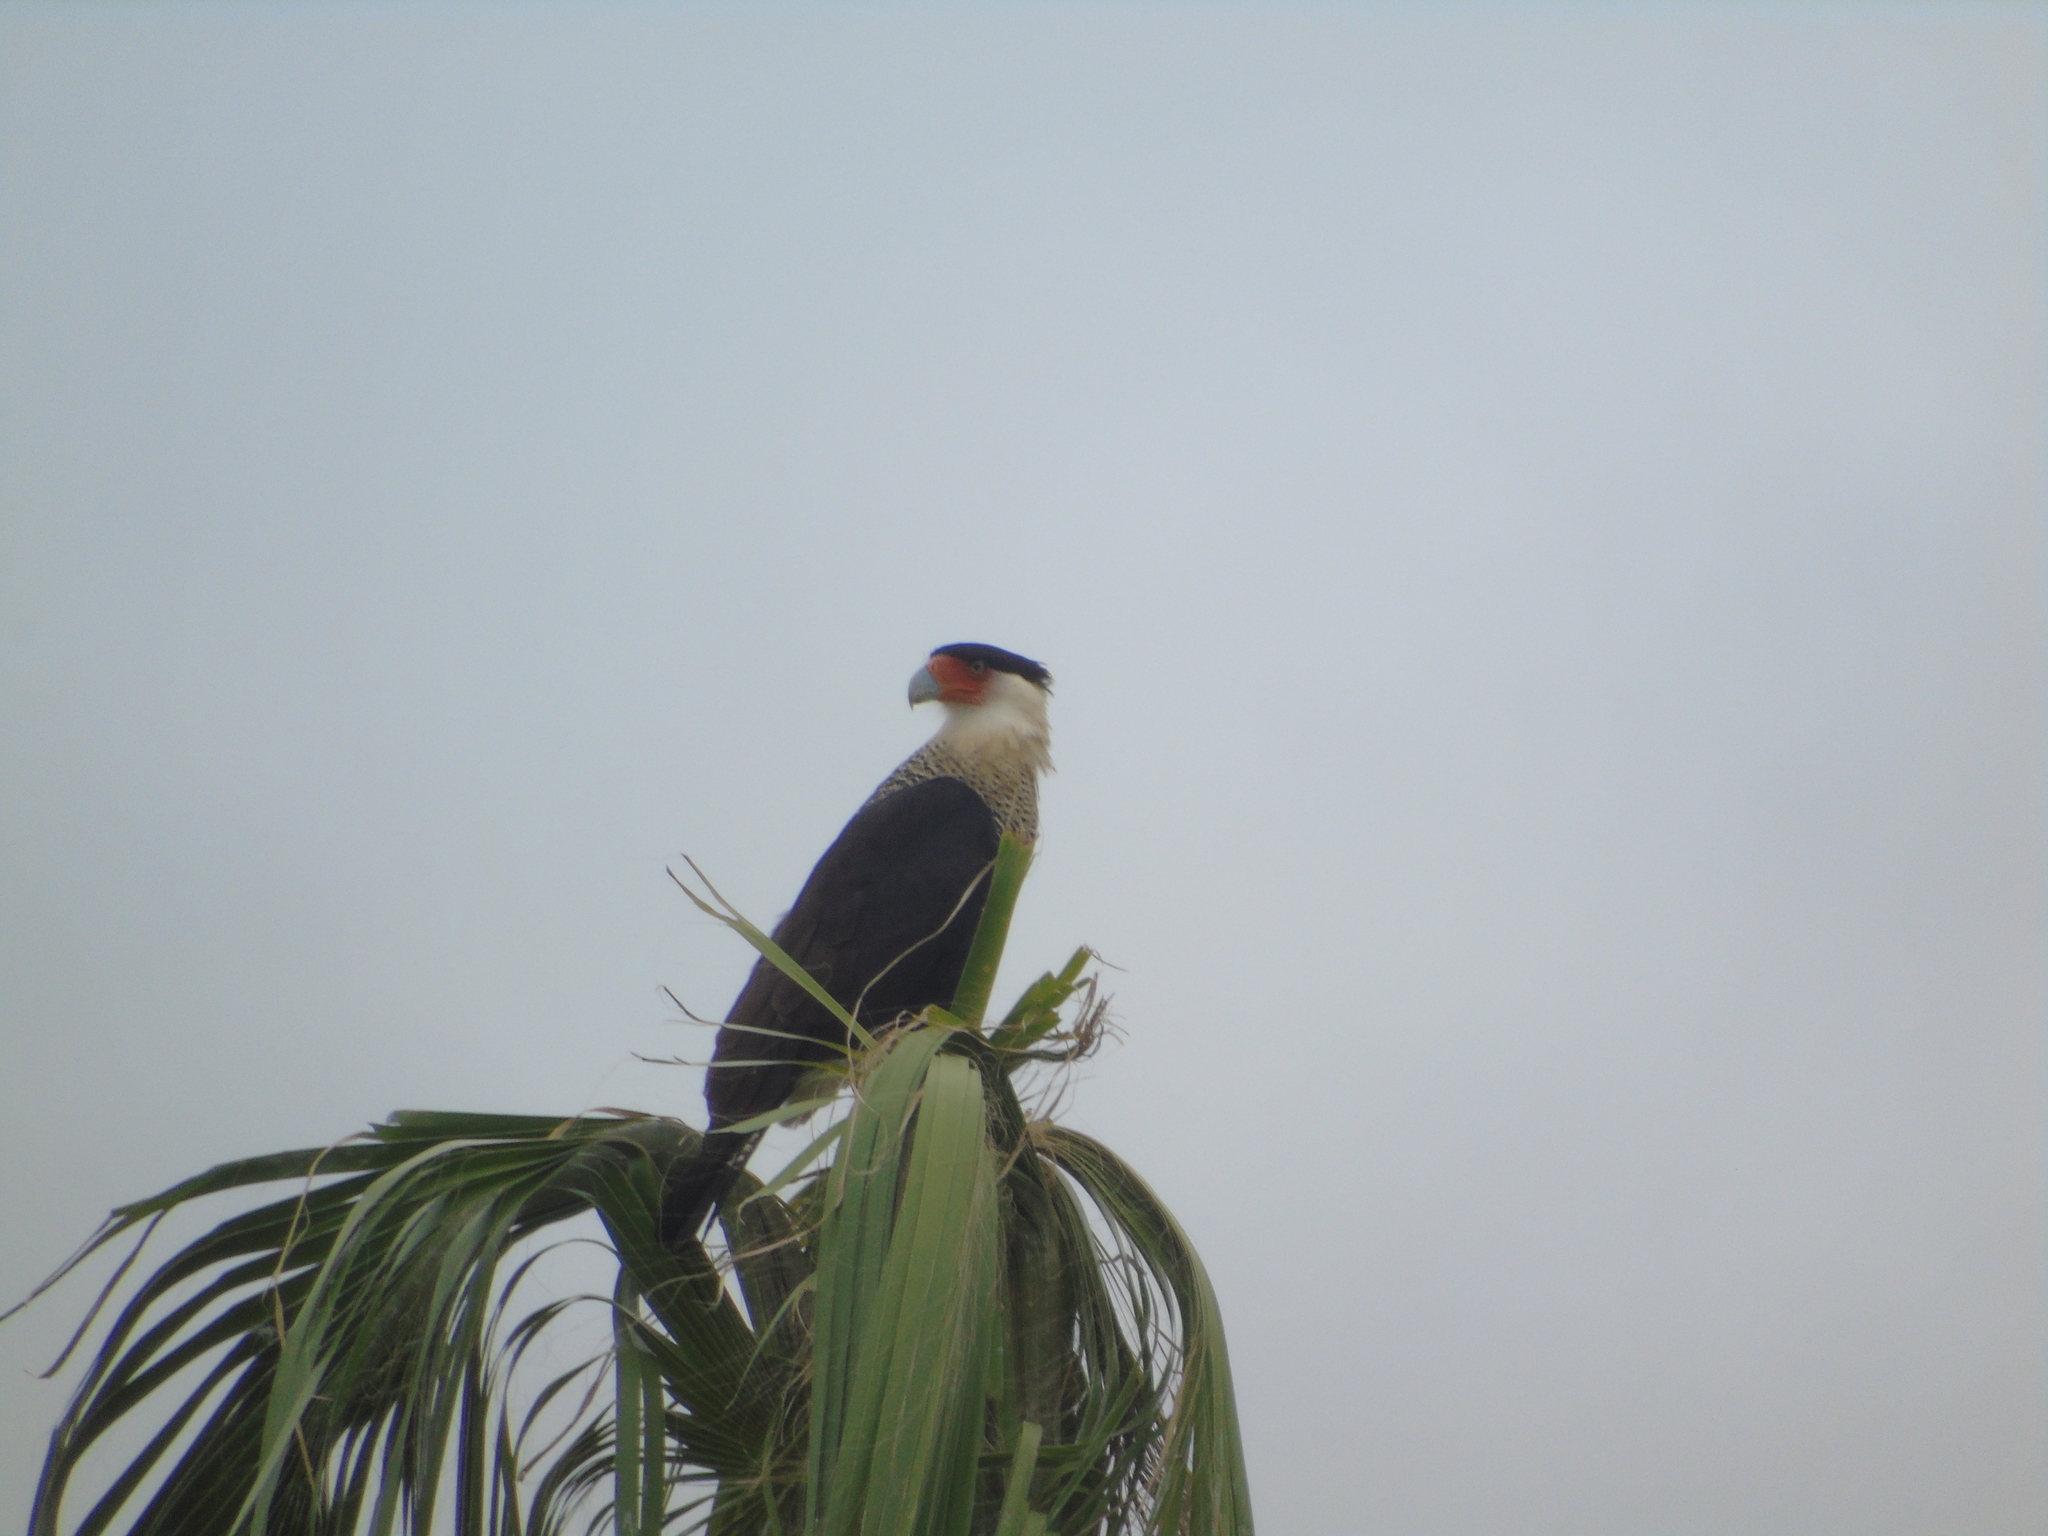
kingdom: Animalia
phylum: Chordata
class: Aves
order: Falconiformes
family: Falconidae
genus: Caracara
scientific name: Caracara plancus
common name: Southern caracara
